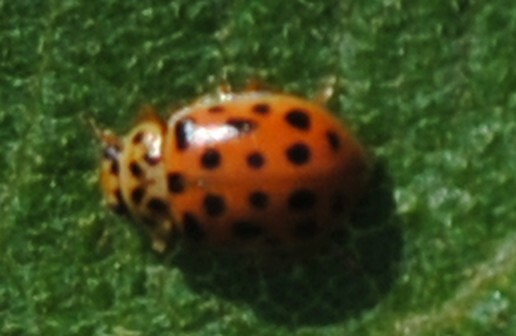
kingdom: Animalia
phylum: Arthropoda
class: Insecta
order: Coleoptera
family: Coccinellidae
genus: Anisosticta
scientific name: Anisosticta novemdecimpunctata
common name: Water ladybird
